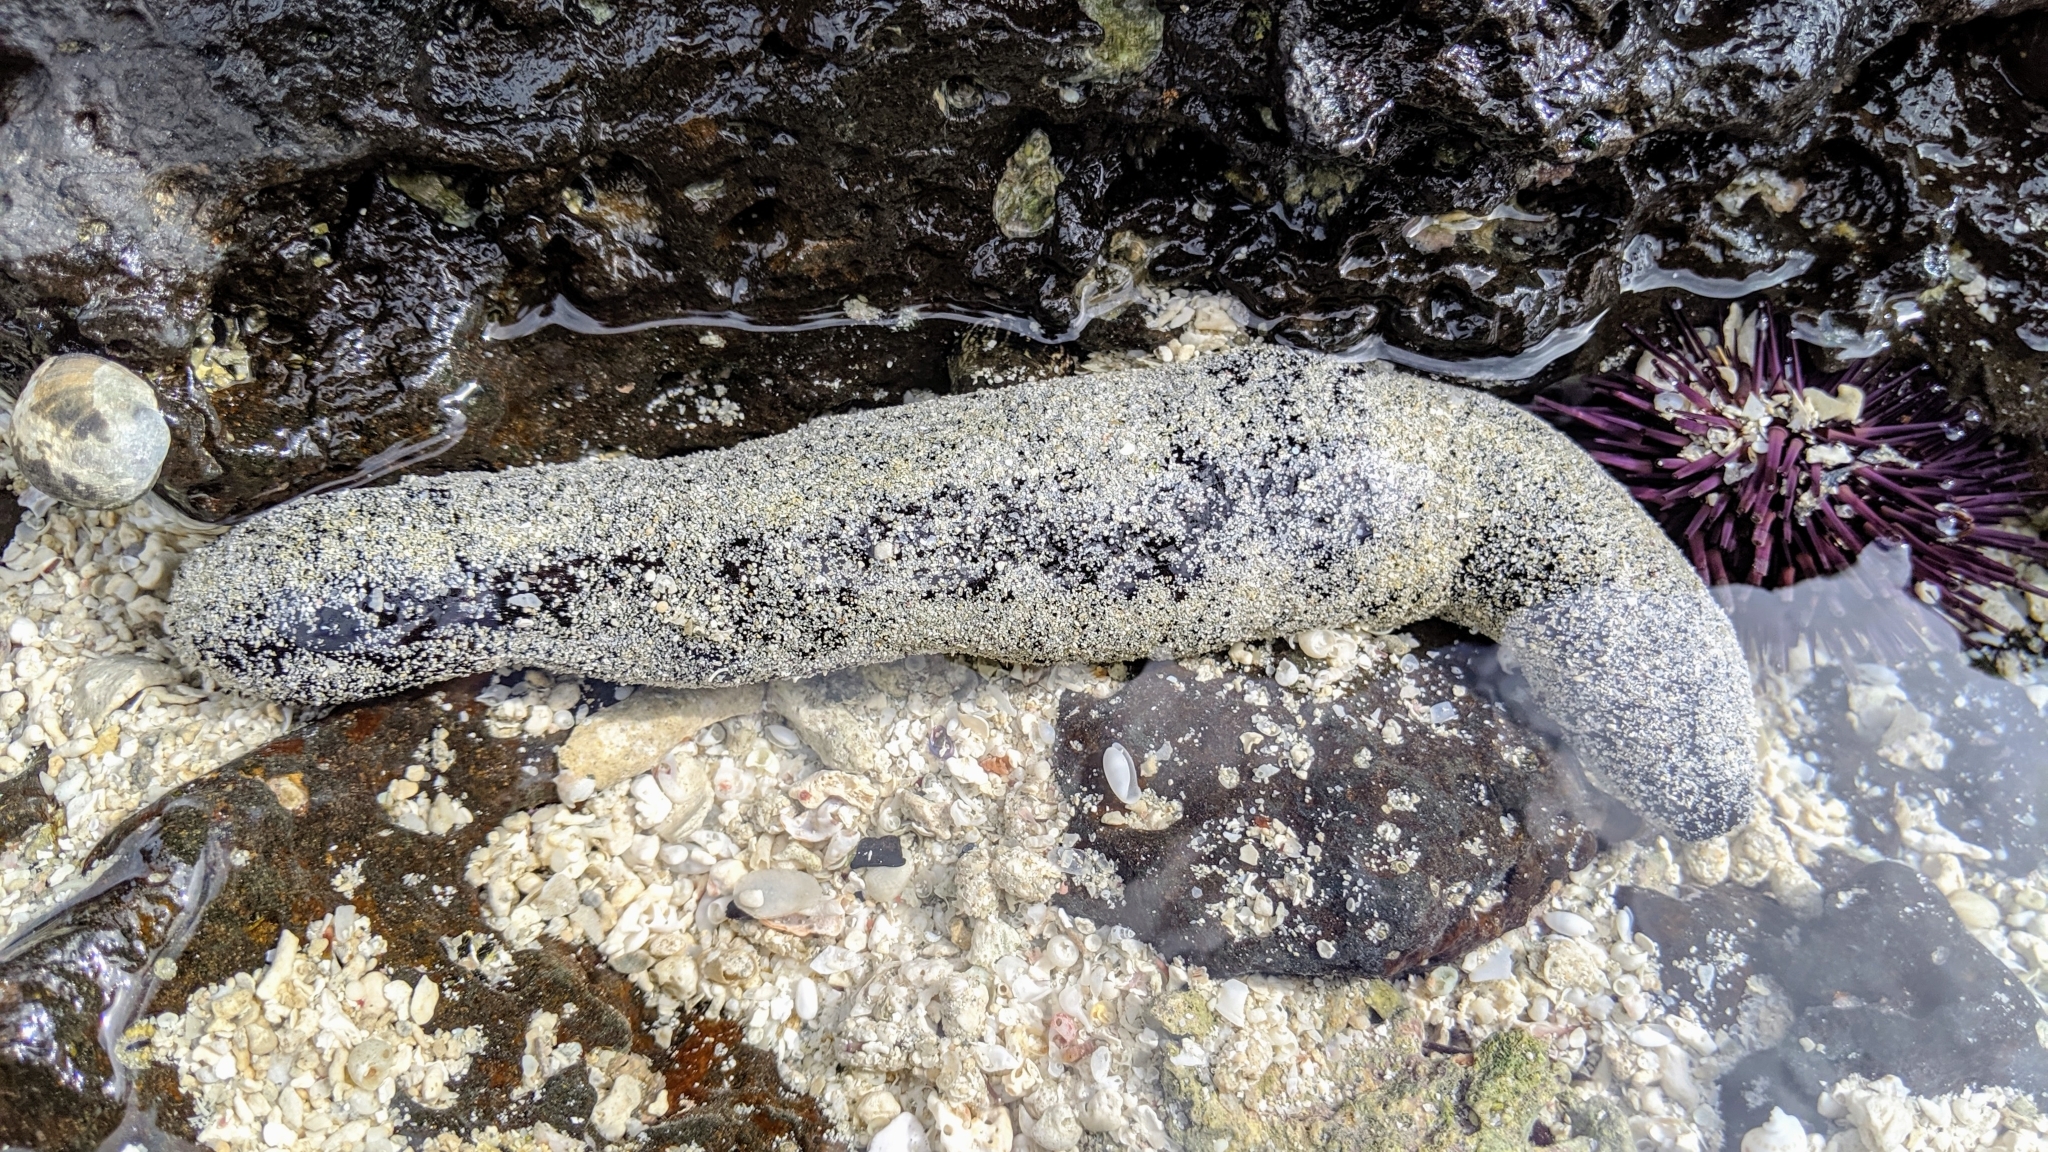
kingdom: Animalia
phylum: Echinodermata
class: Holothuroidea
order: Holothuriida
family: Holothuriidae
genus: Holothuria
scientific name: Holothuria atra
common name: Lollyfish
